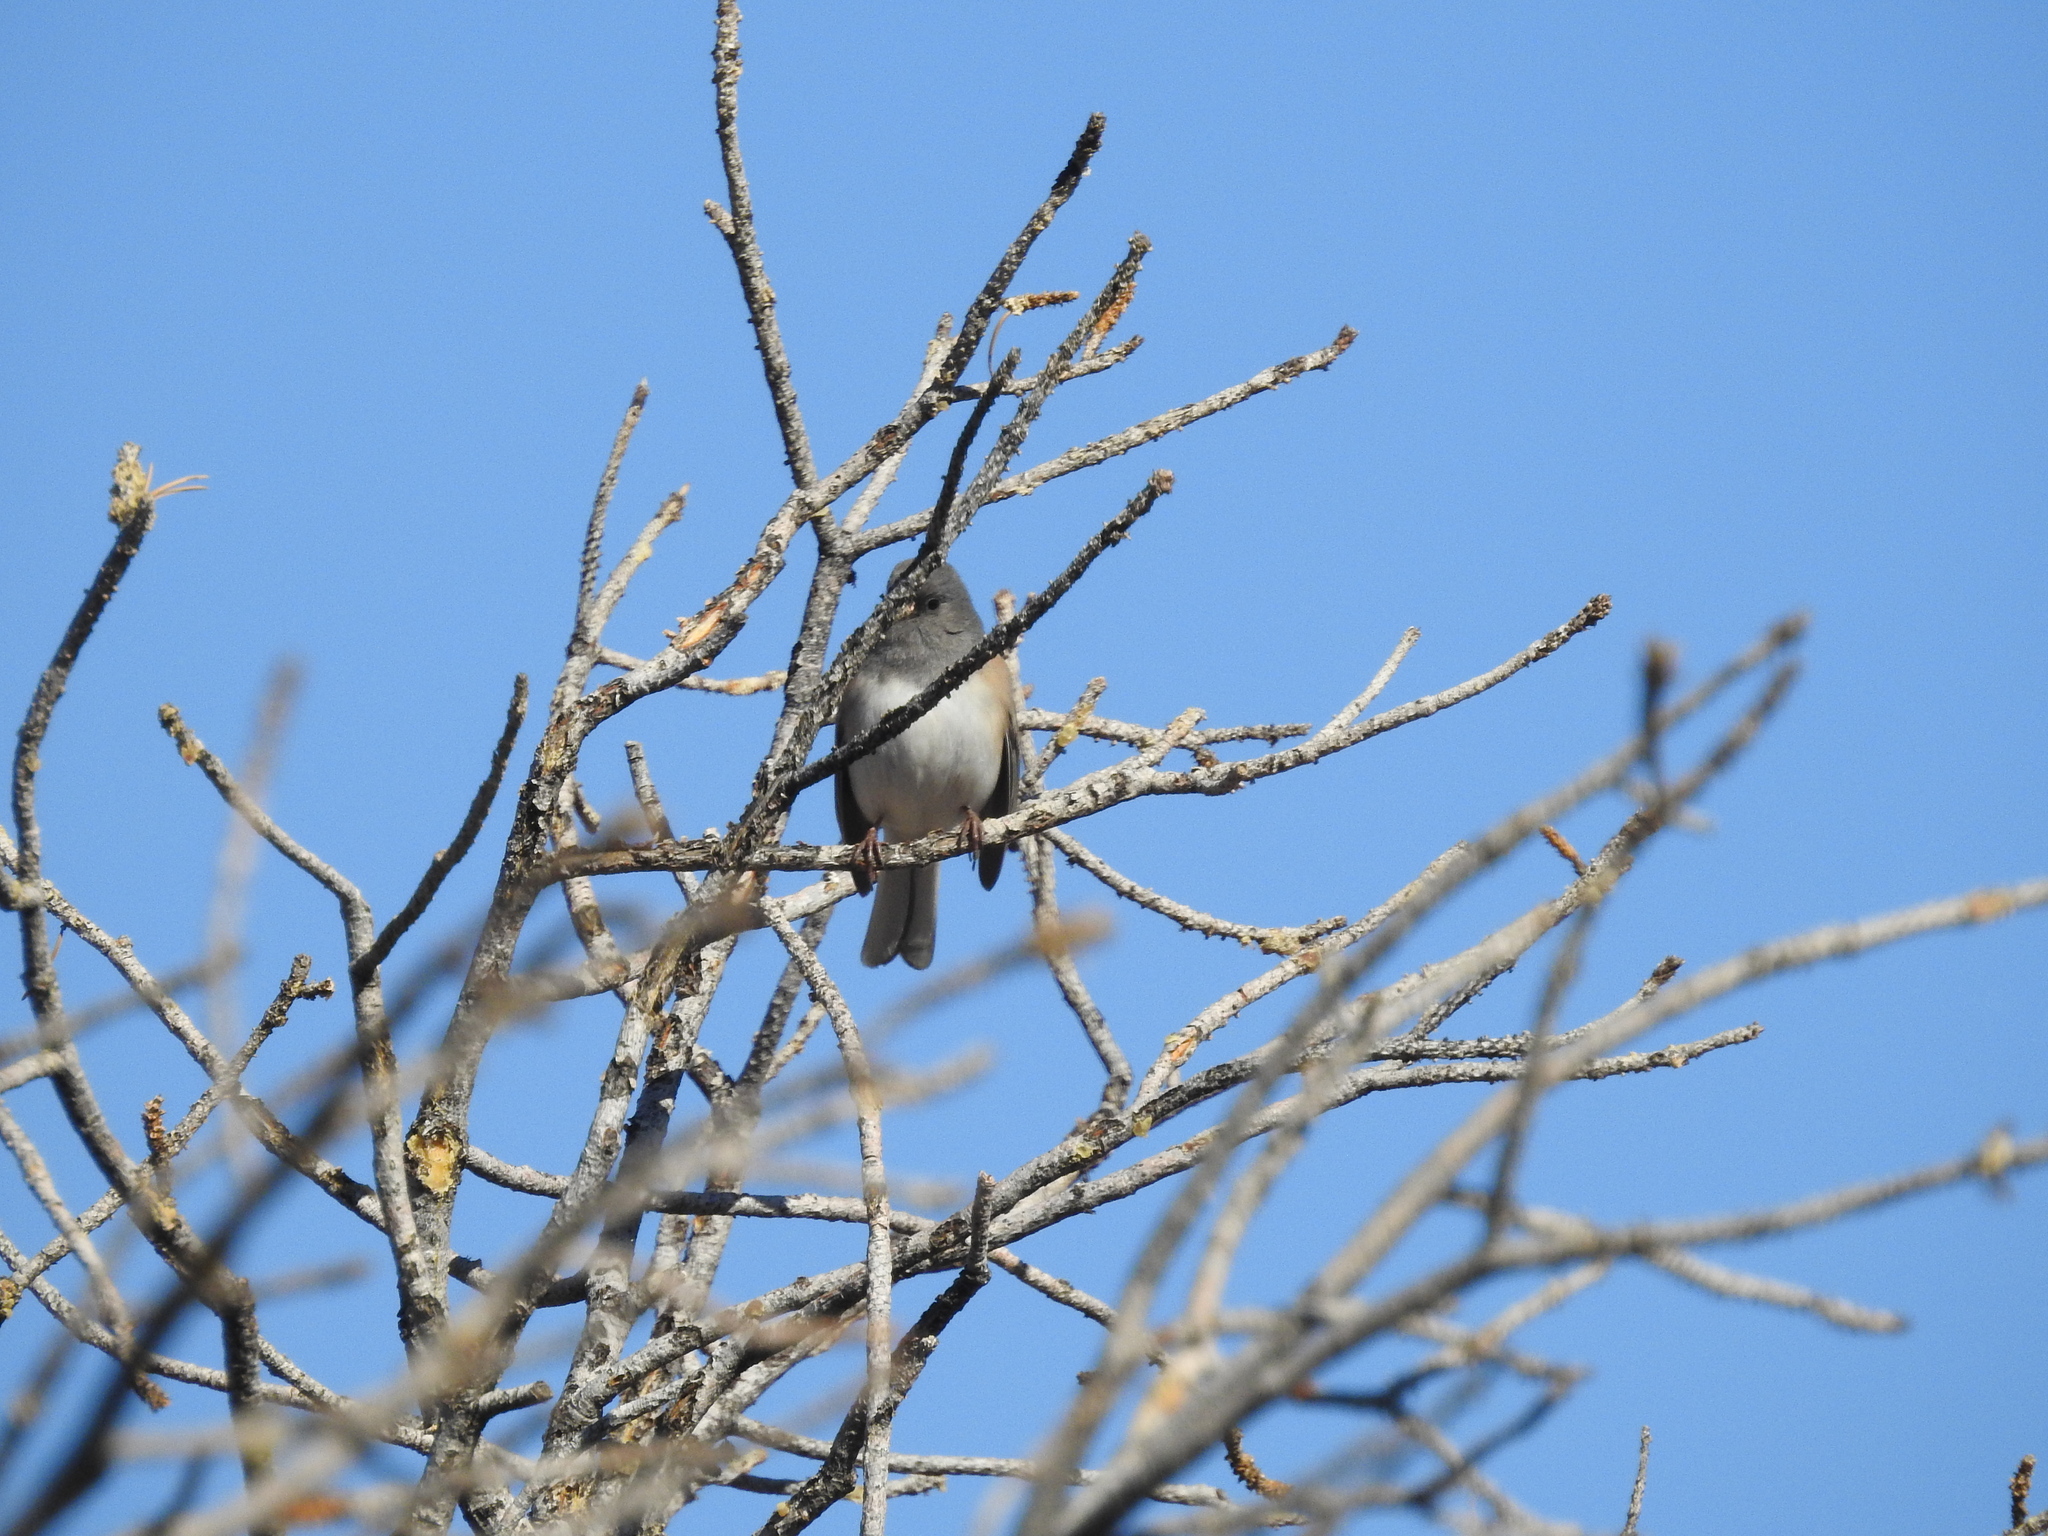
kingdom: Animalia
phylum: Chordata
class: Aves
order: Passeriformes
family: Passerellidae
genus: Junco
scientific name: Junco hyemalis
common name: Dark-eyed junco
